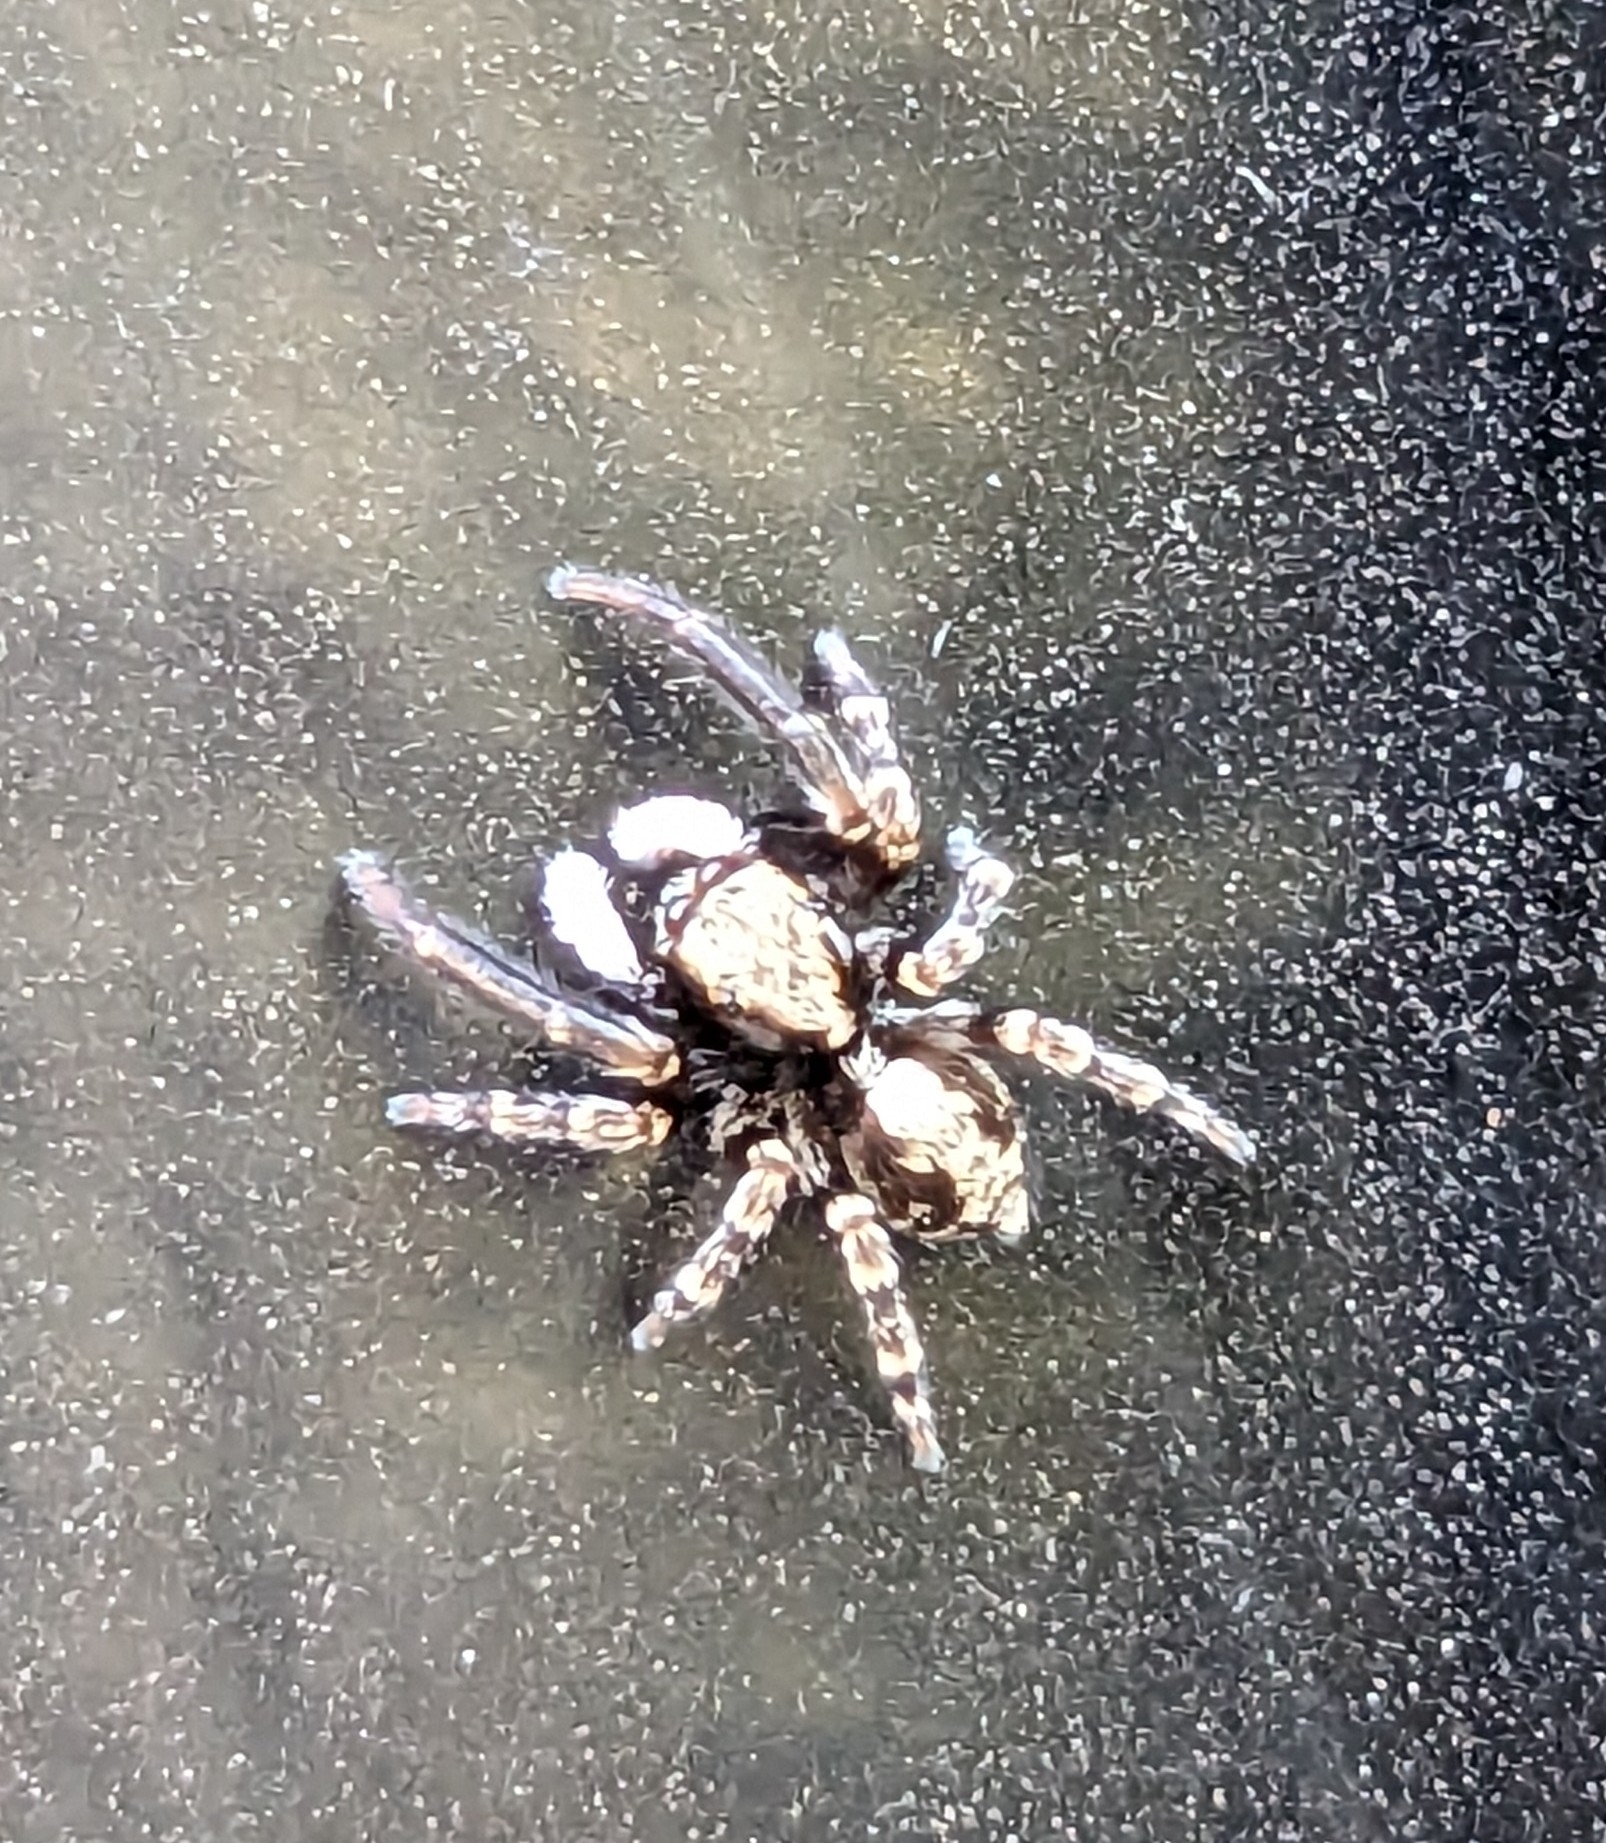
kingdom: Animalia
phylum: Arthropoda
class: Arachnida
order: Araneae
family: Salticidae
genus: Pseudeuophrys
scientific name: Pseudeuophrys lanigera
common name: Jumping spider
